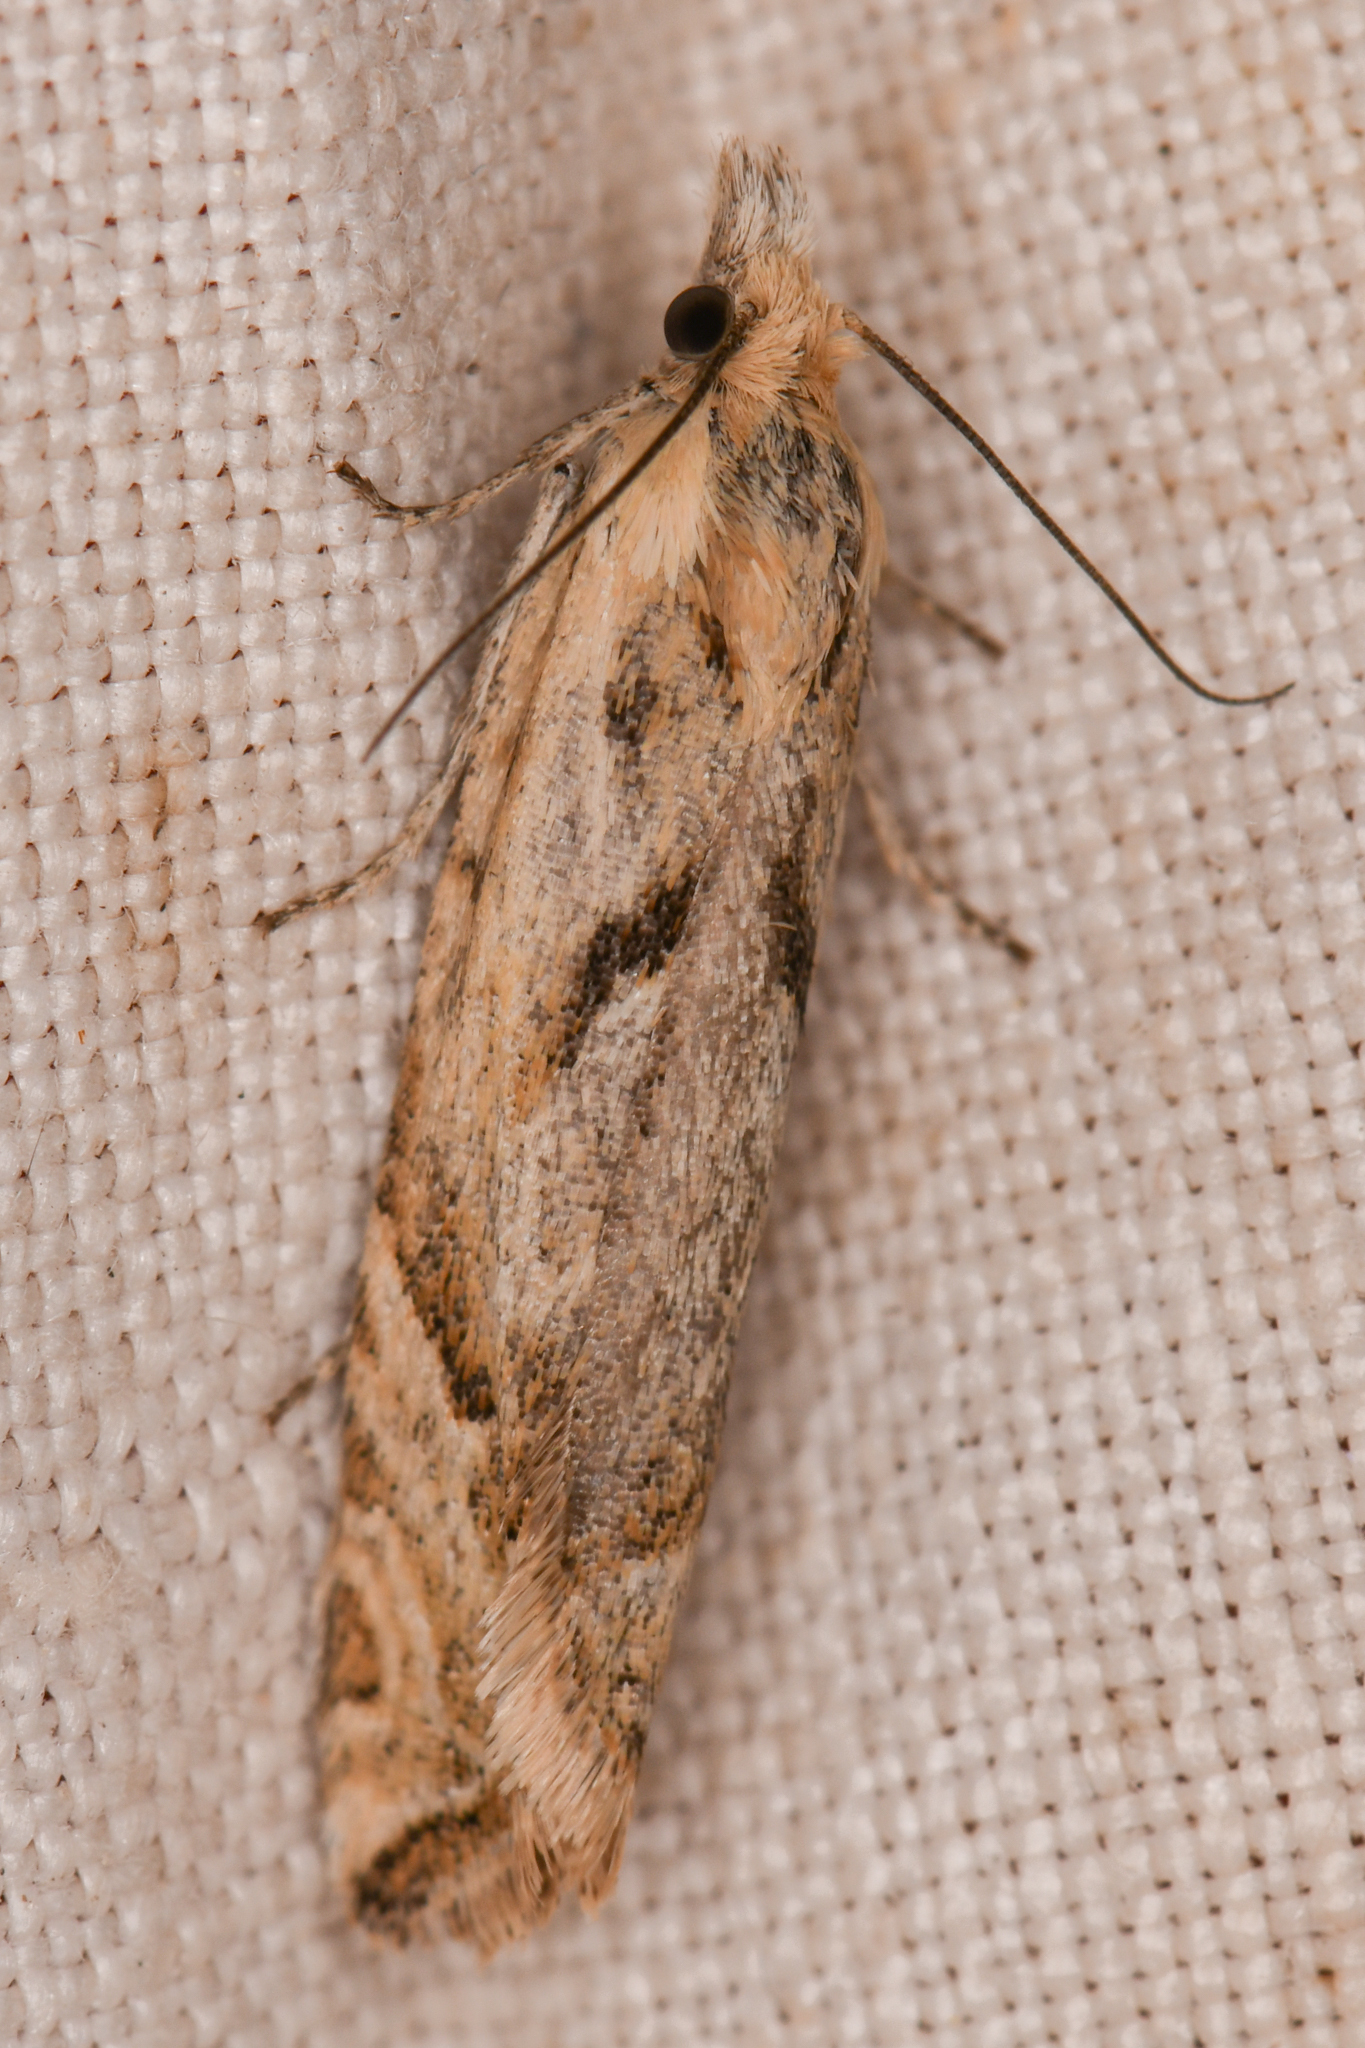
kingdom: Animalia
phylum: Arthropoda
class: Insecta
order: Lepidoptera
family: Tortricidae
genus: Eucosma
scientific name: Eucosma tarandana
